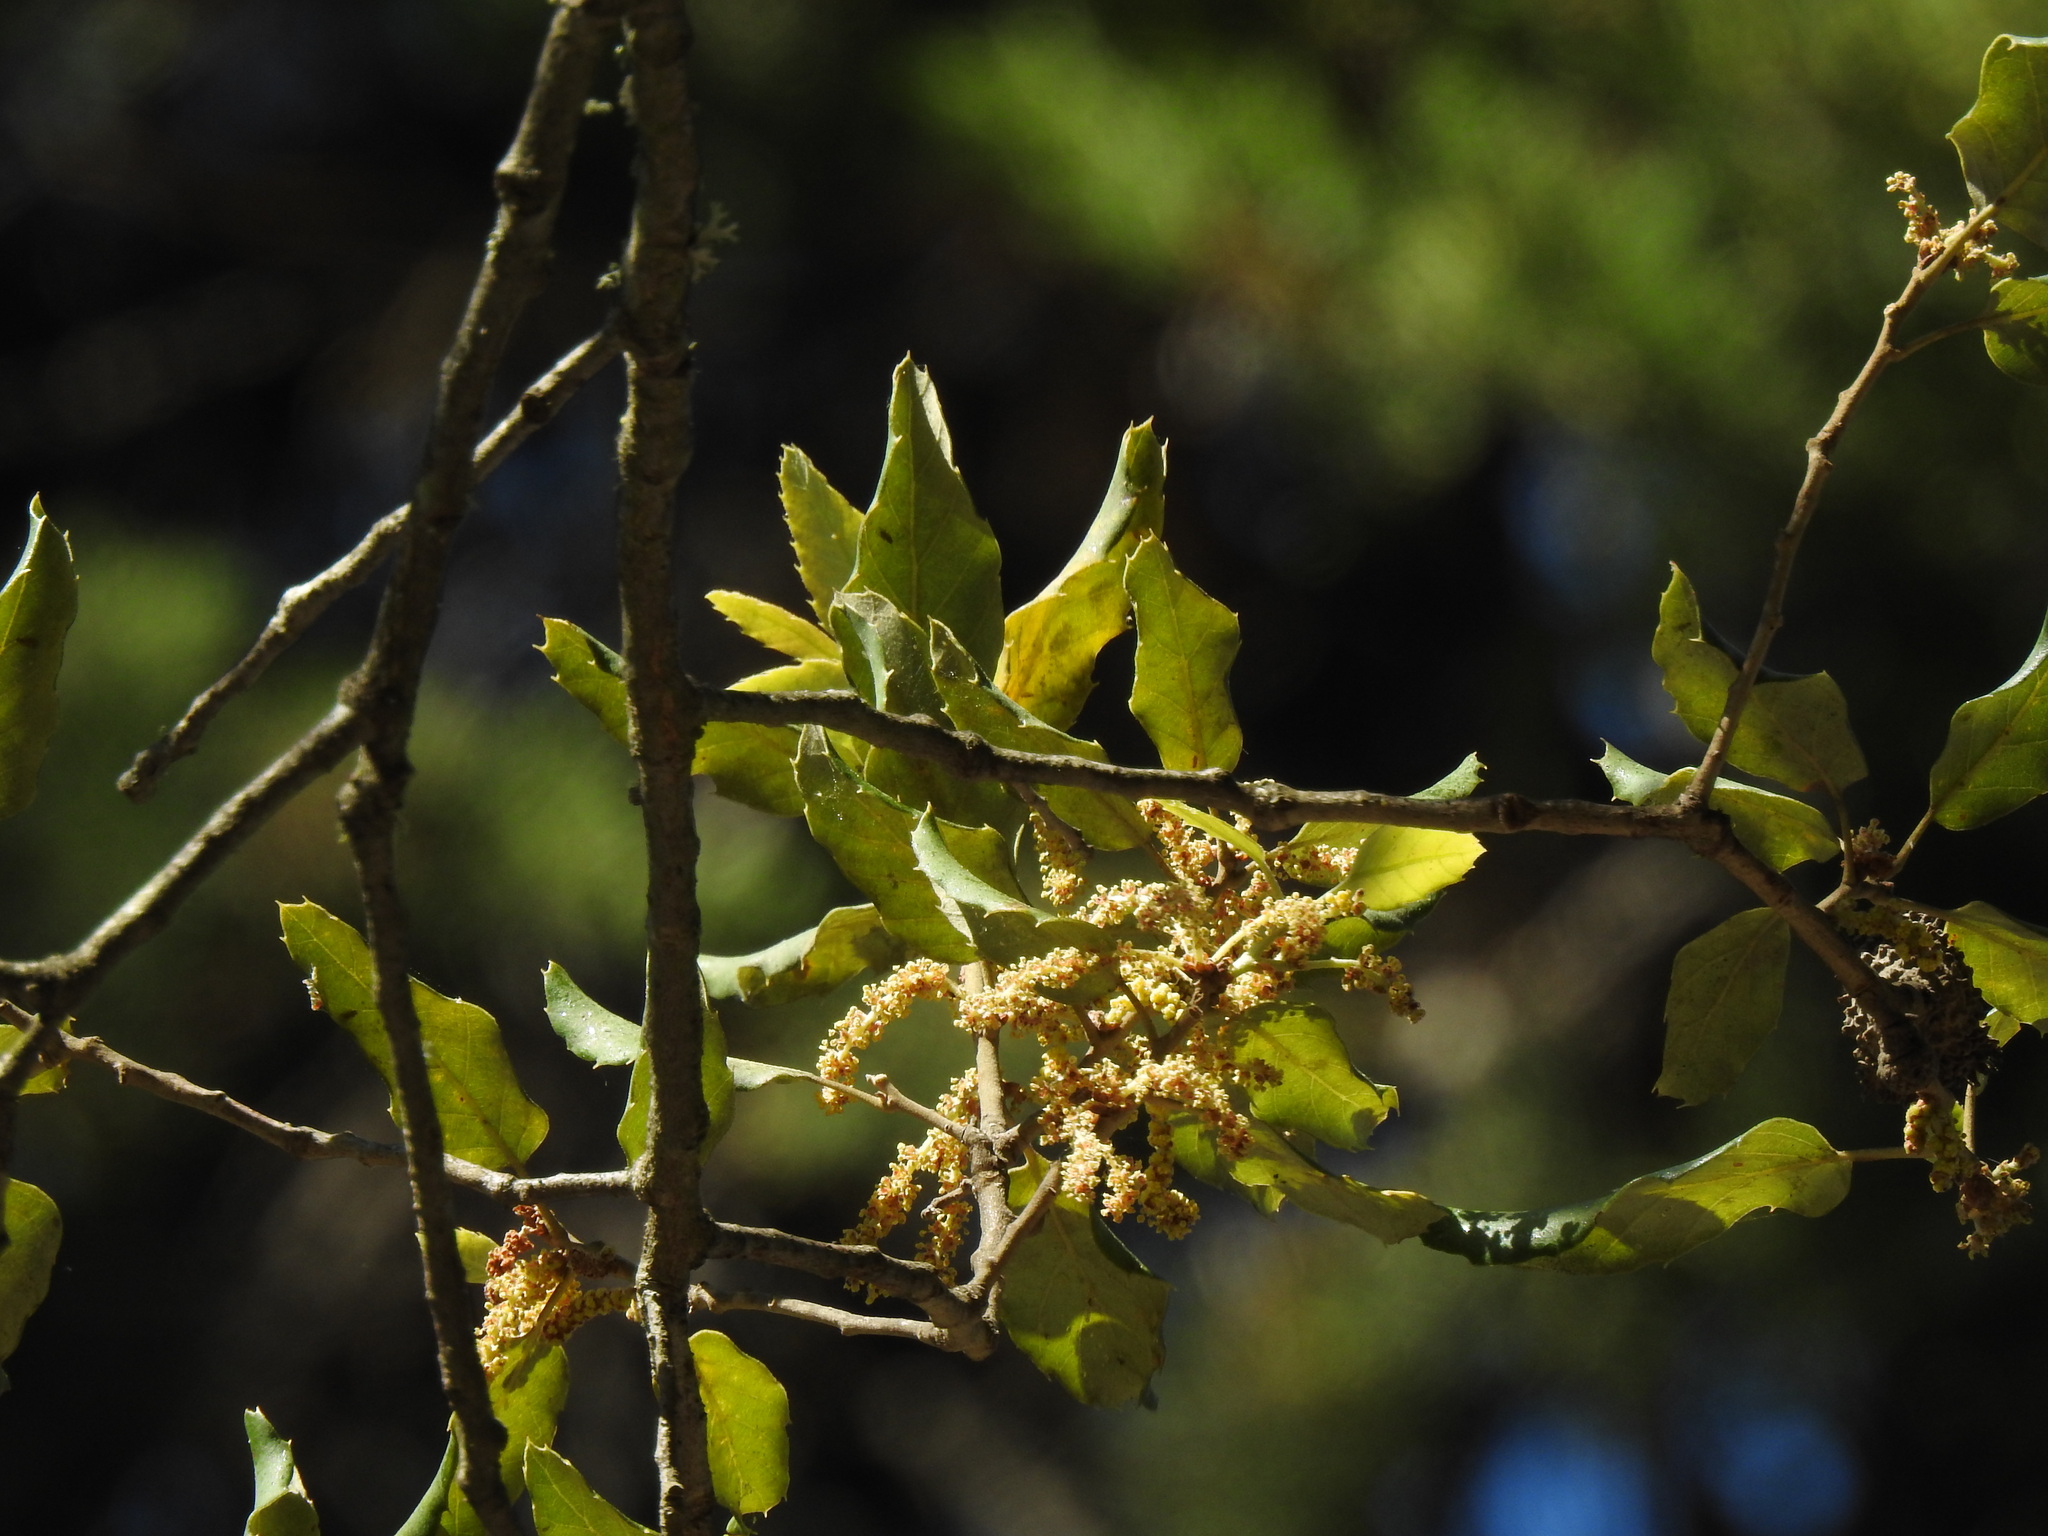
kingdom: Plantae
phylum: Tracheophyta
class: Magnoliopsida
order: Fagales
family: Fagaceae
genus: Quercus
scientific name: Quercus suber
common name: Cork oak
